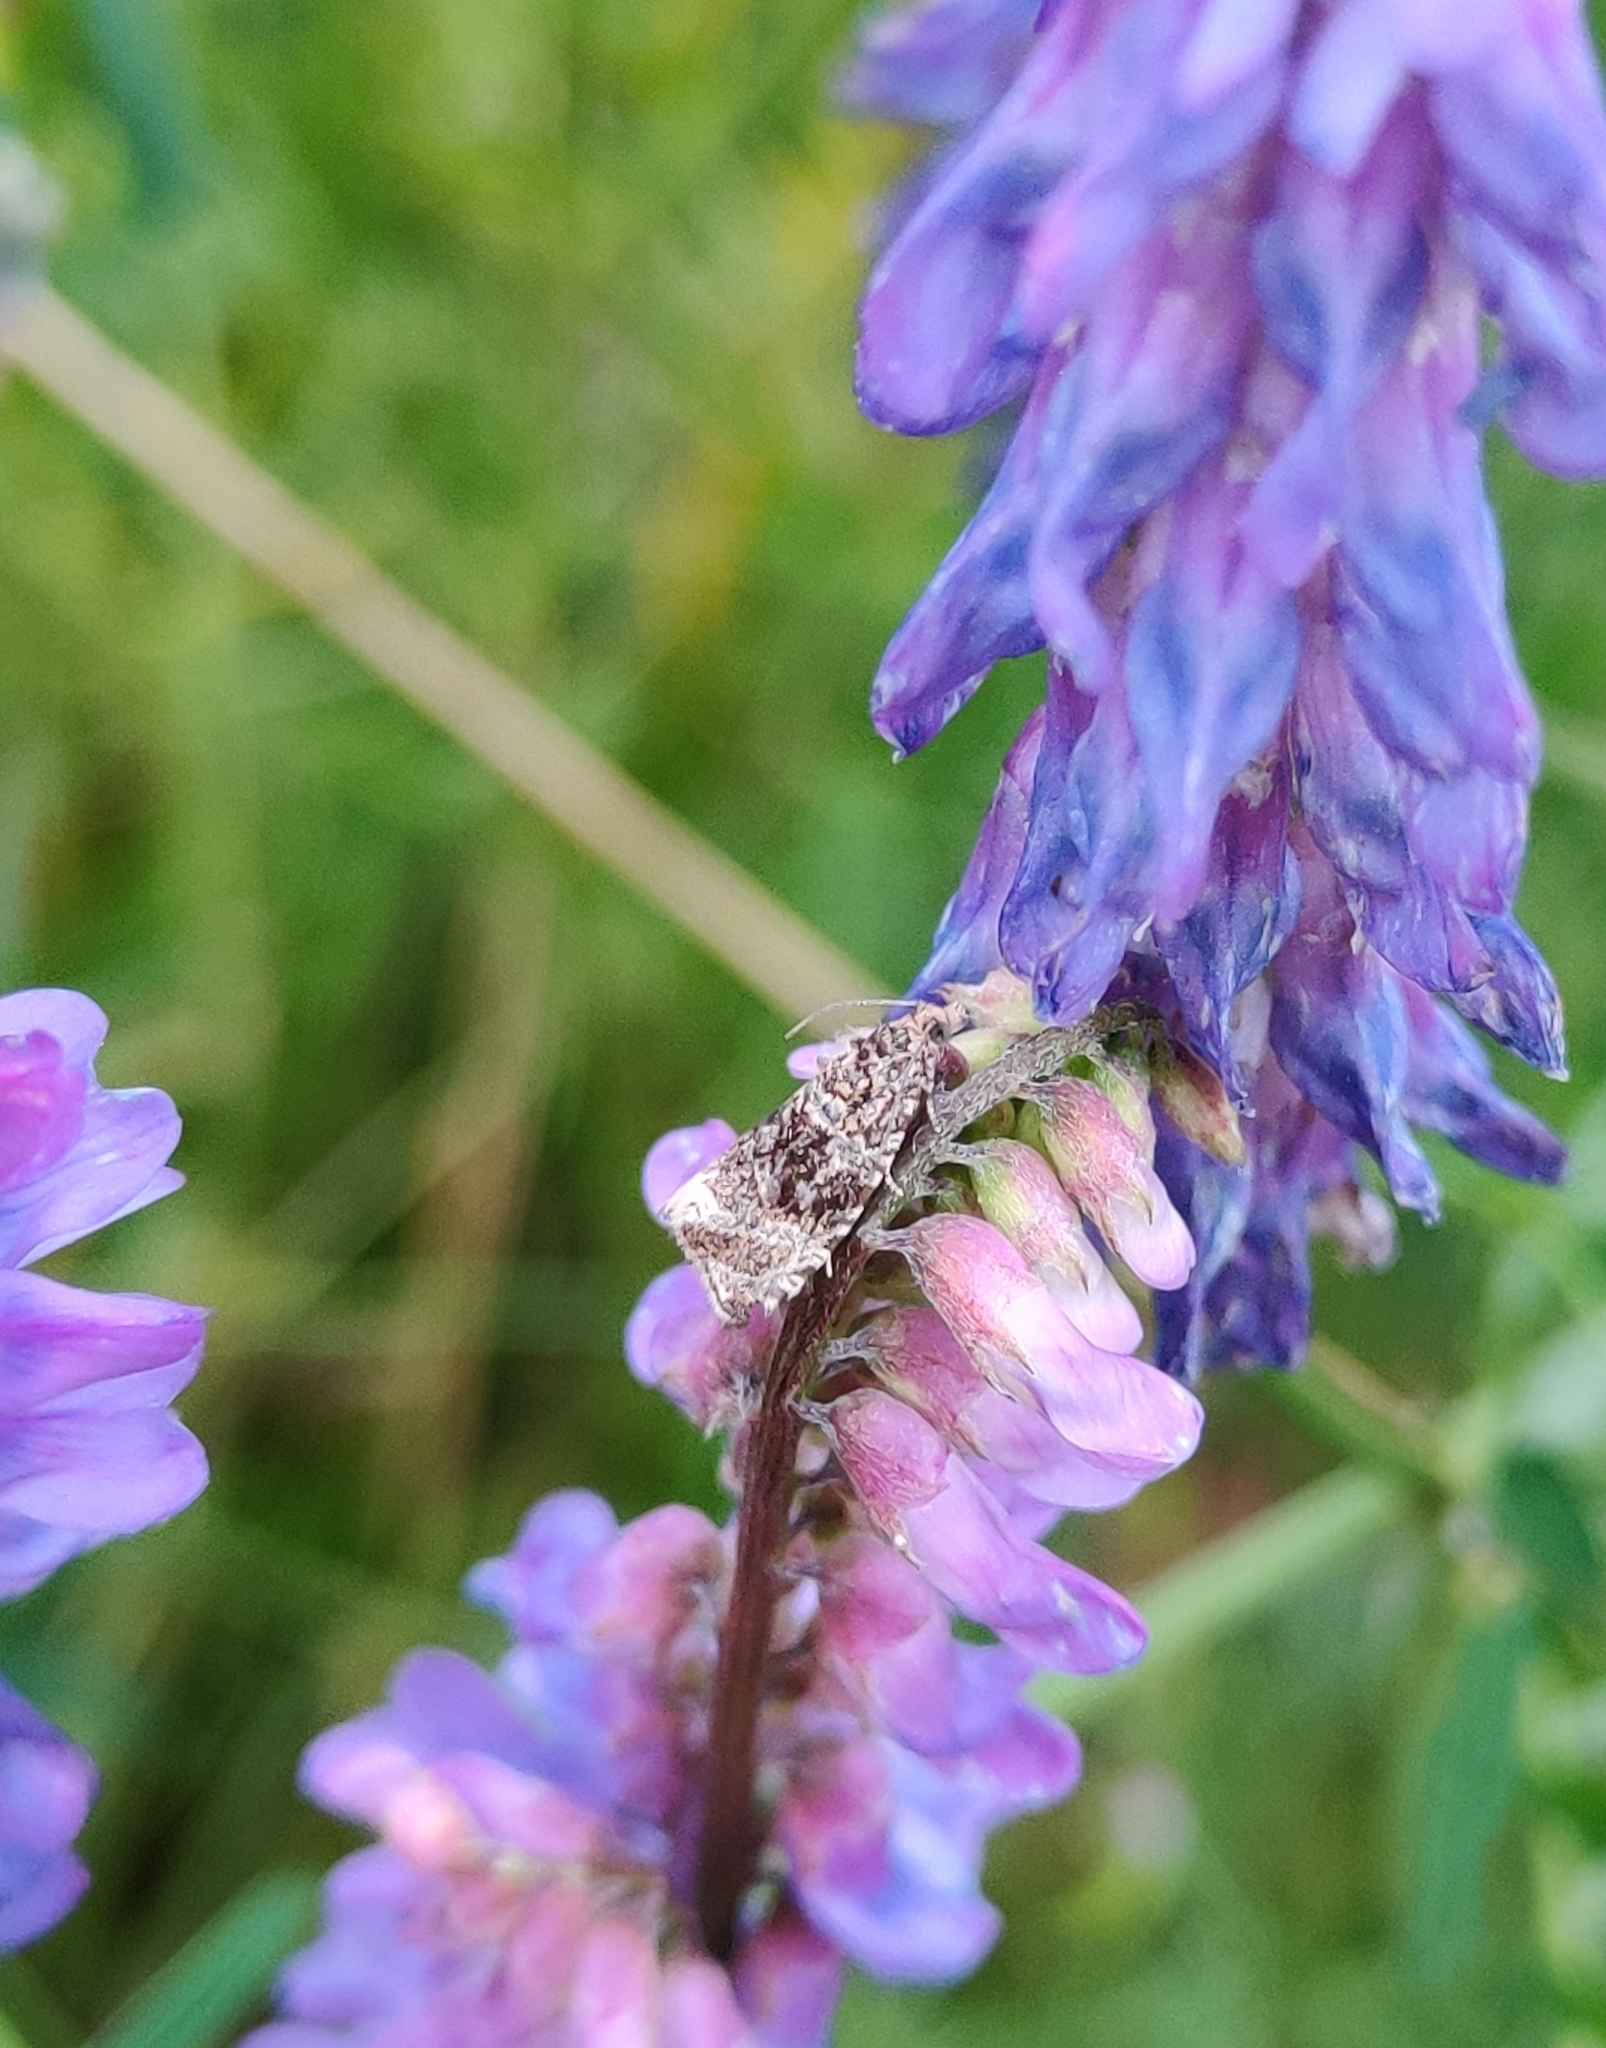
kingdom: Animalia
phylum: Arthropoda
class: Insecta
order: Lepidoptera
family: Tortricidae
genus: Syricoris
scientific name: Syricoris lacunana
